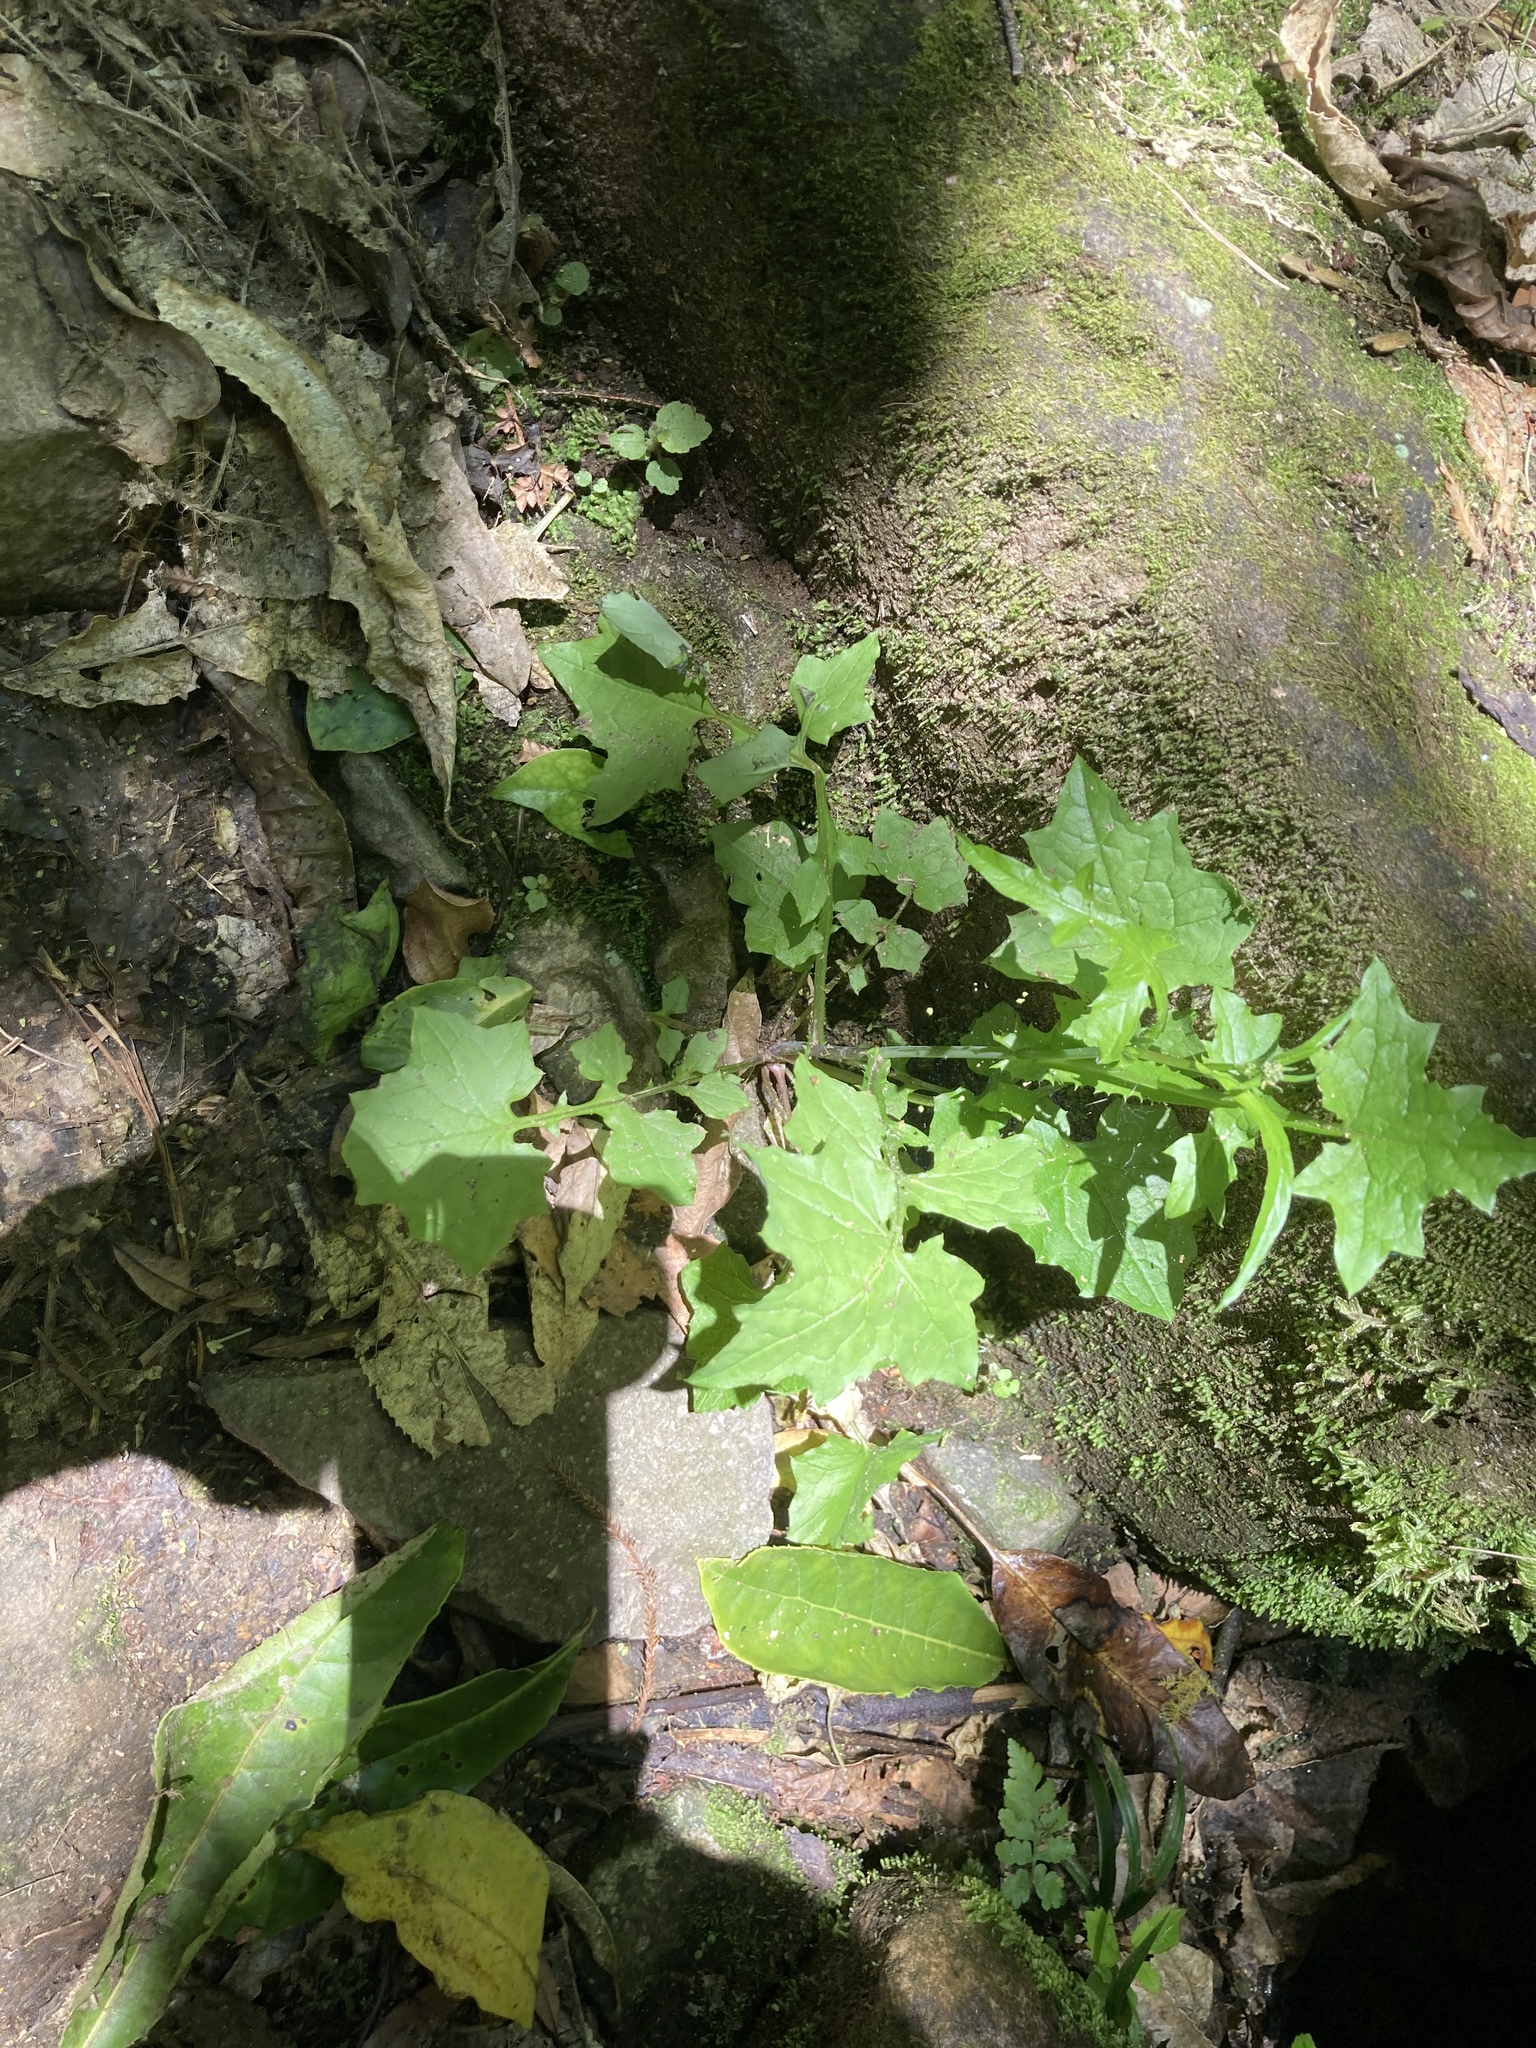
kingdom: Plantae
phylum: Tracheophyta
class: Magnoliopsida
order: Asterales
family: Asteraceae
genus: Mycelis
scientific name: Mycelis muralis
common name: Wall lettuce
